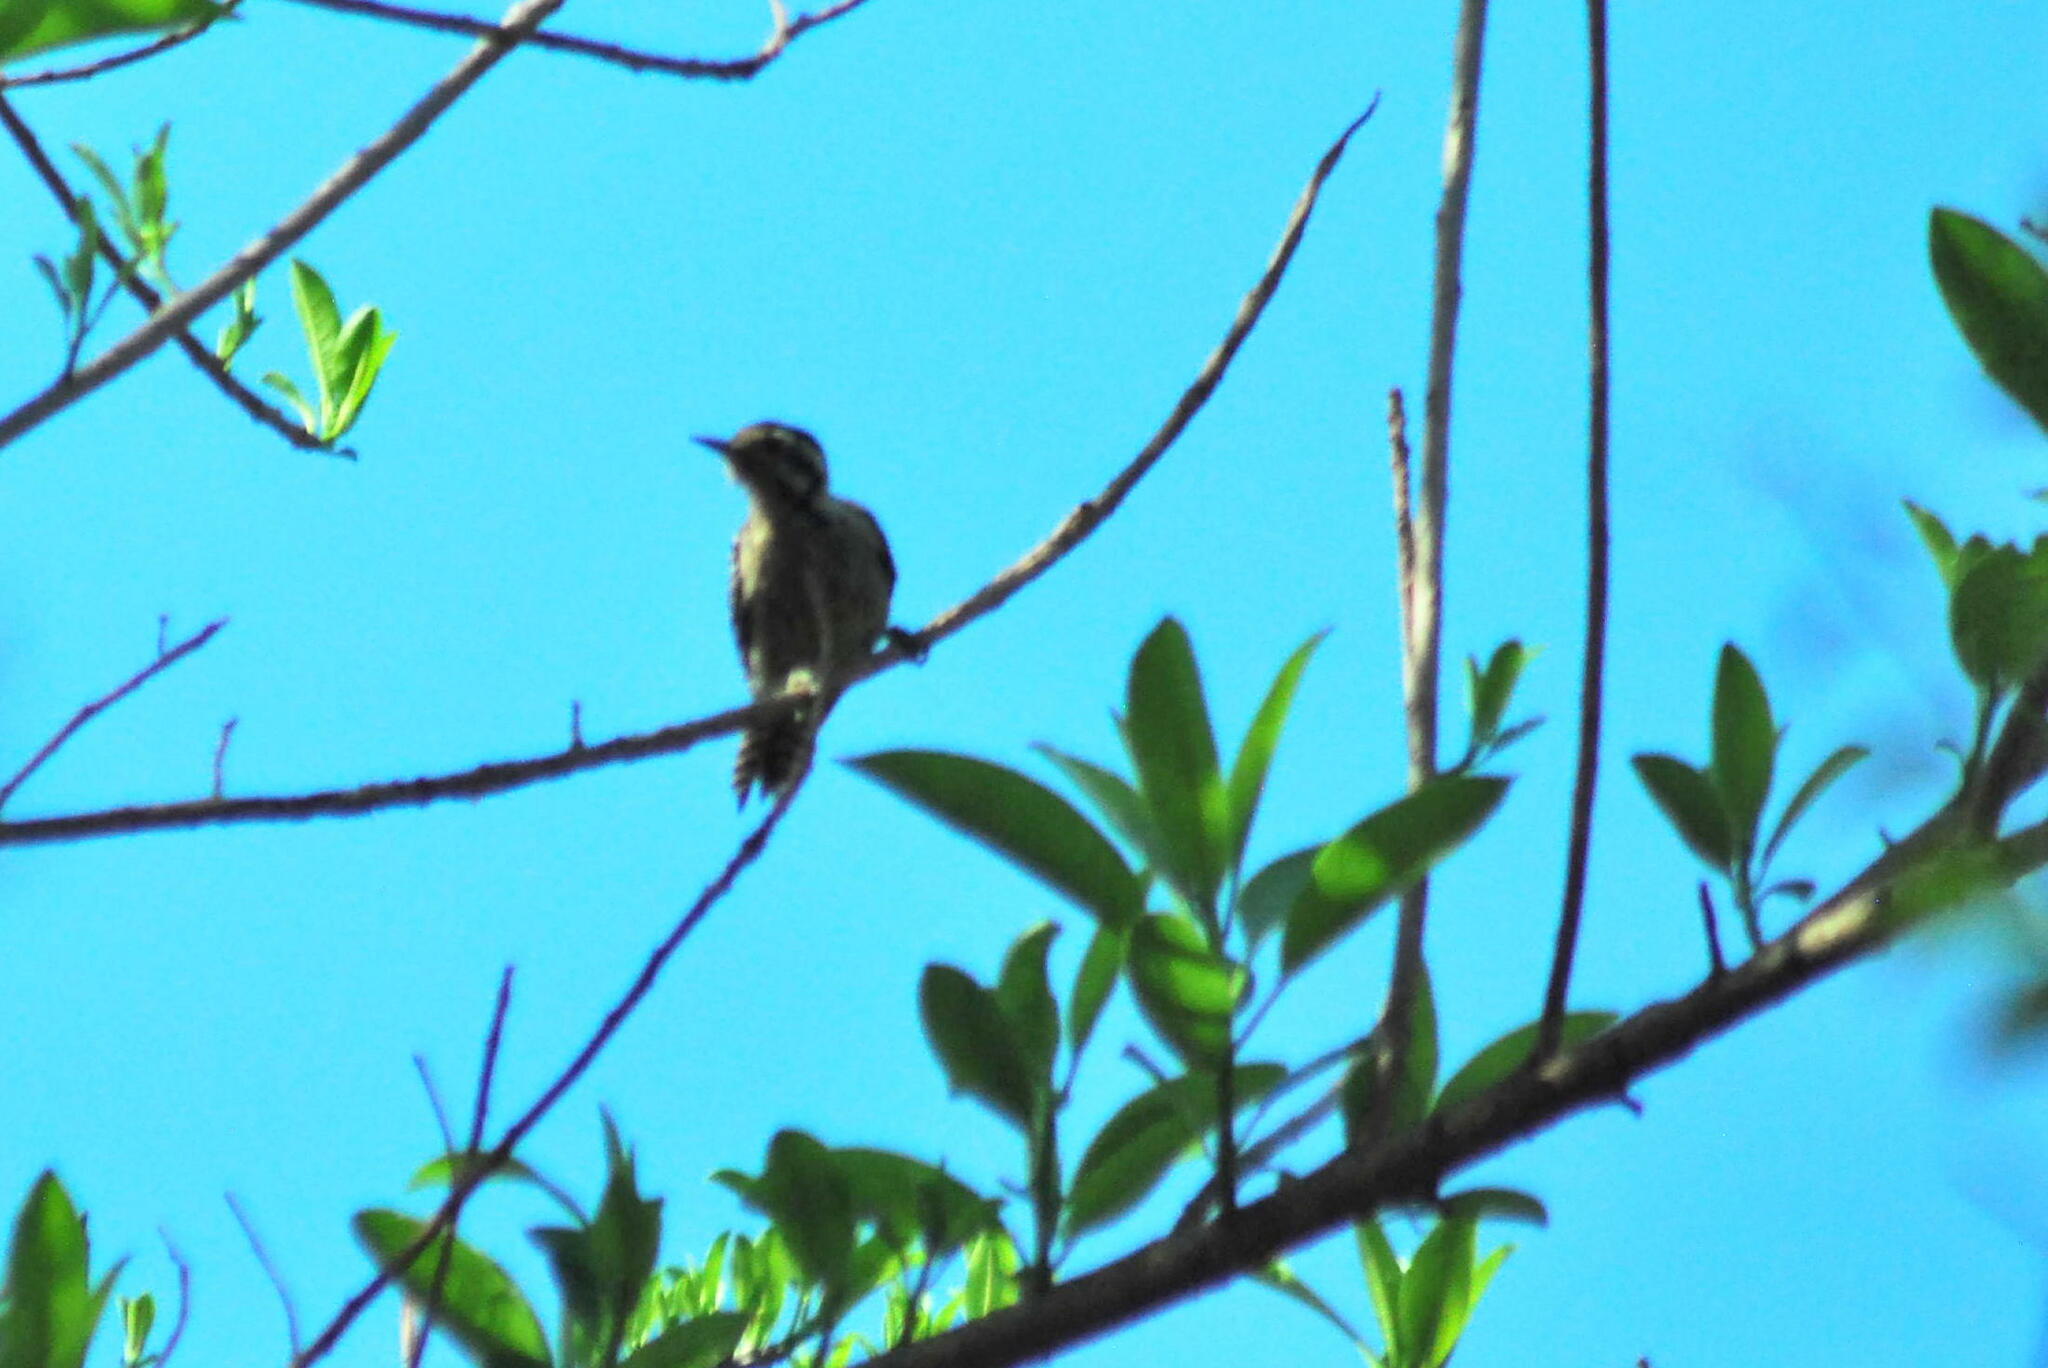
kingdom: Animalia
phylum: Chordata
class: Aves
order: Piciformes
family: Picidae
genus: Dryobates
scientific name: Dryobates scalaris
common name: Ladder-backed woodpecker
